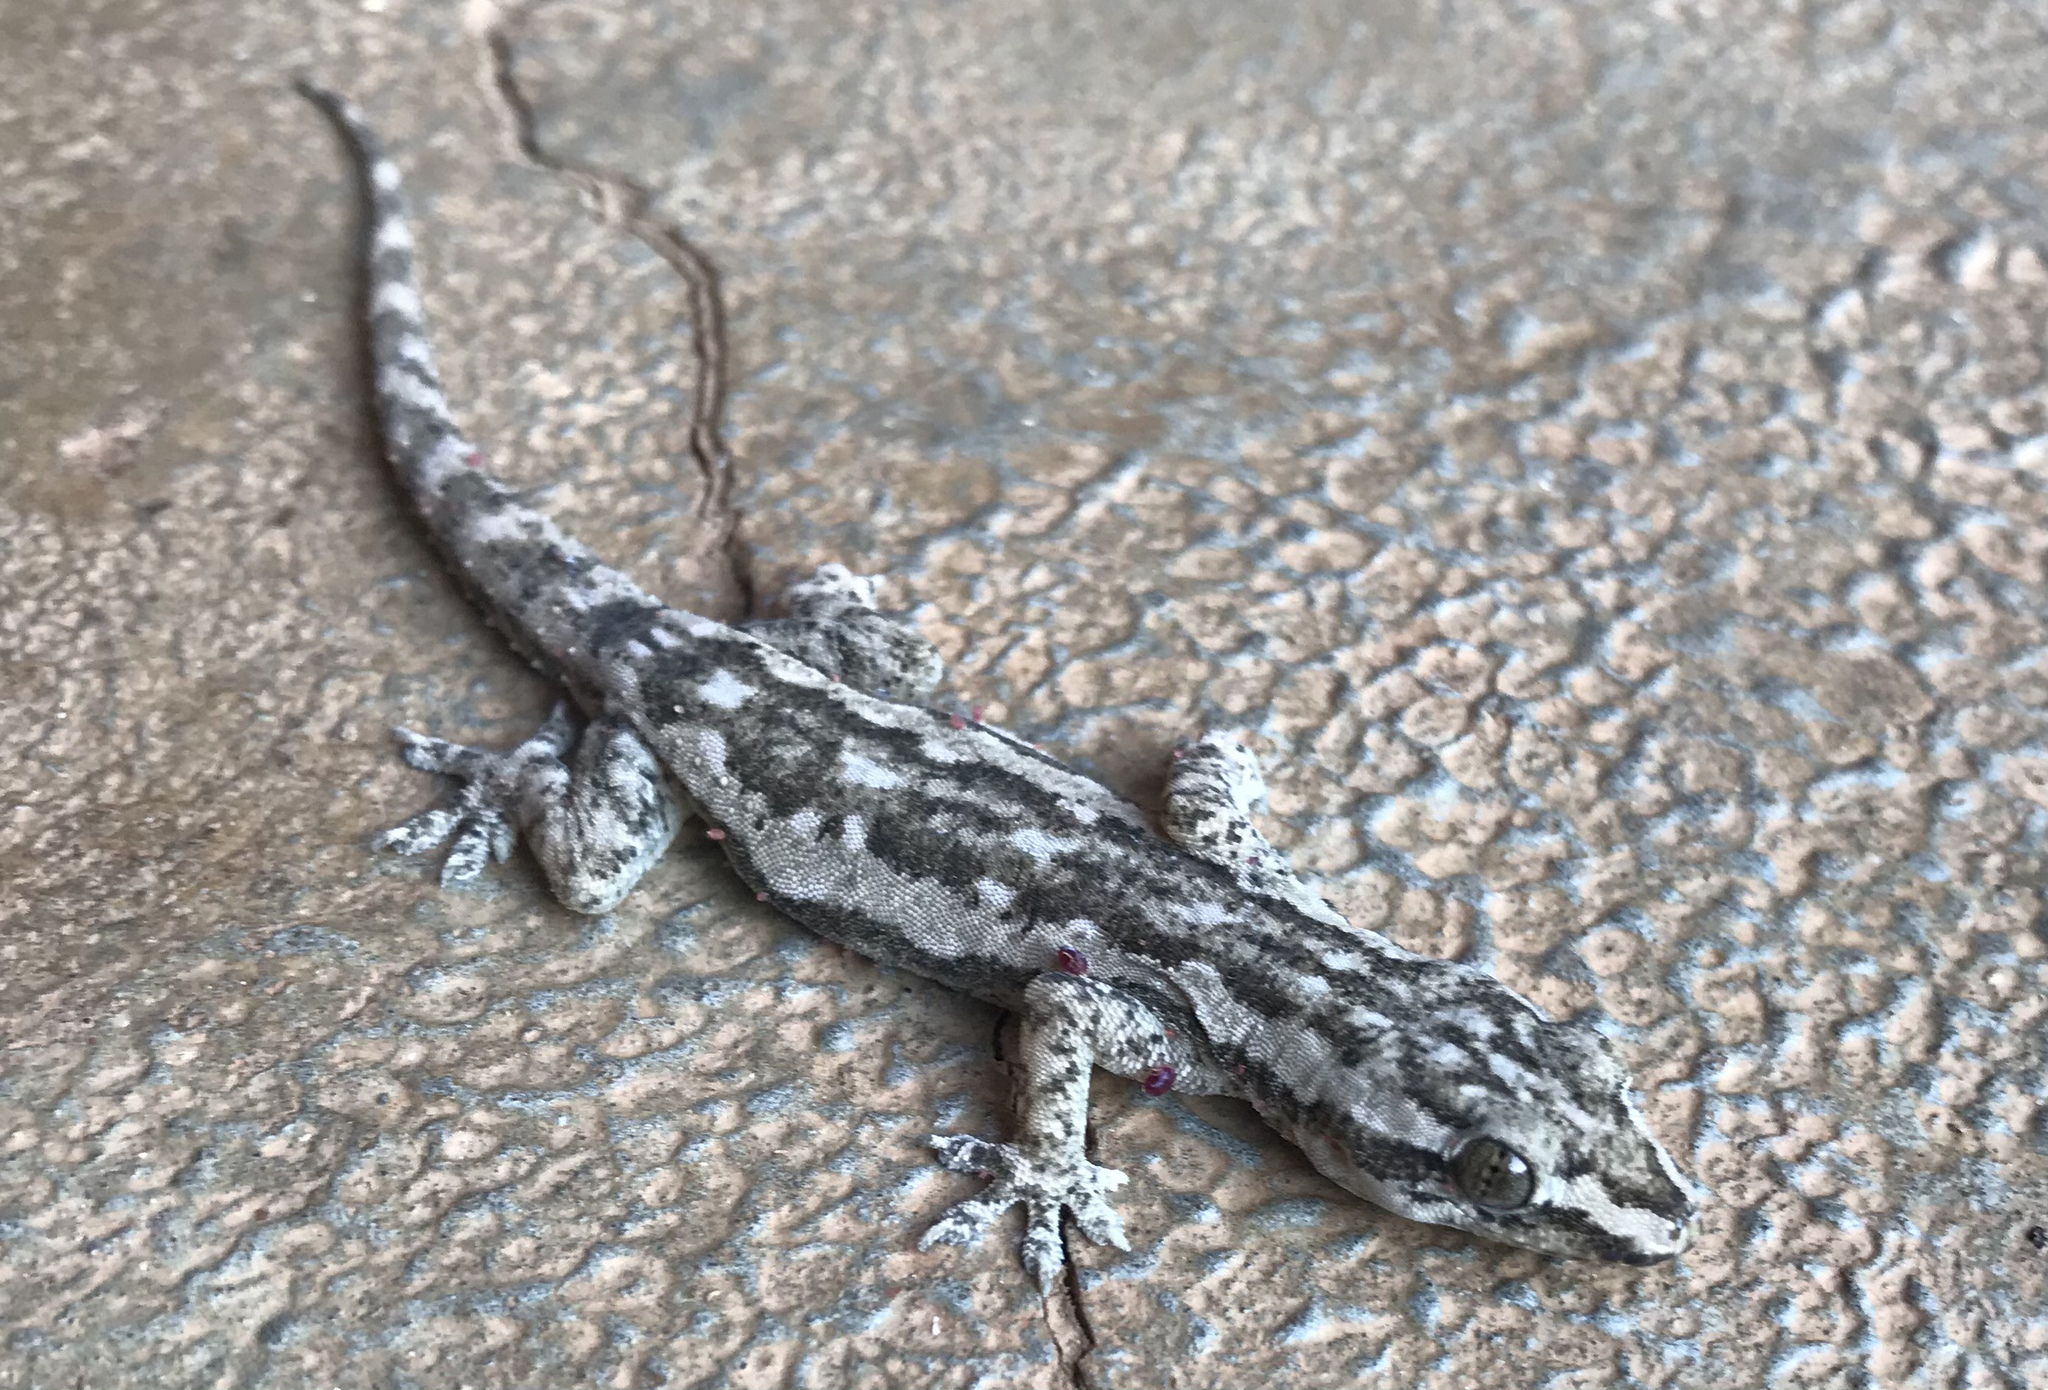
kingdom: Animalia
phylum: Chordata
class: Squamata
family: Gekkonidae
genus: Hemidactylus
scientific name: Hemidactylus frenatus
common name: Common house gecko
